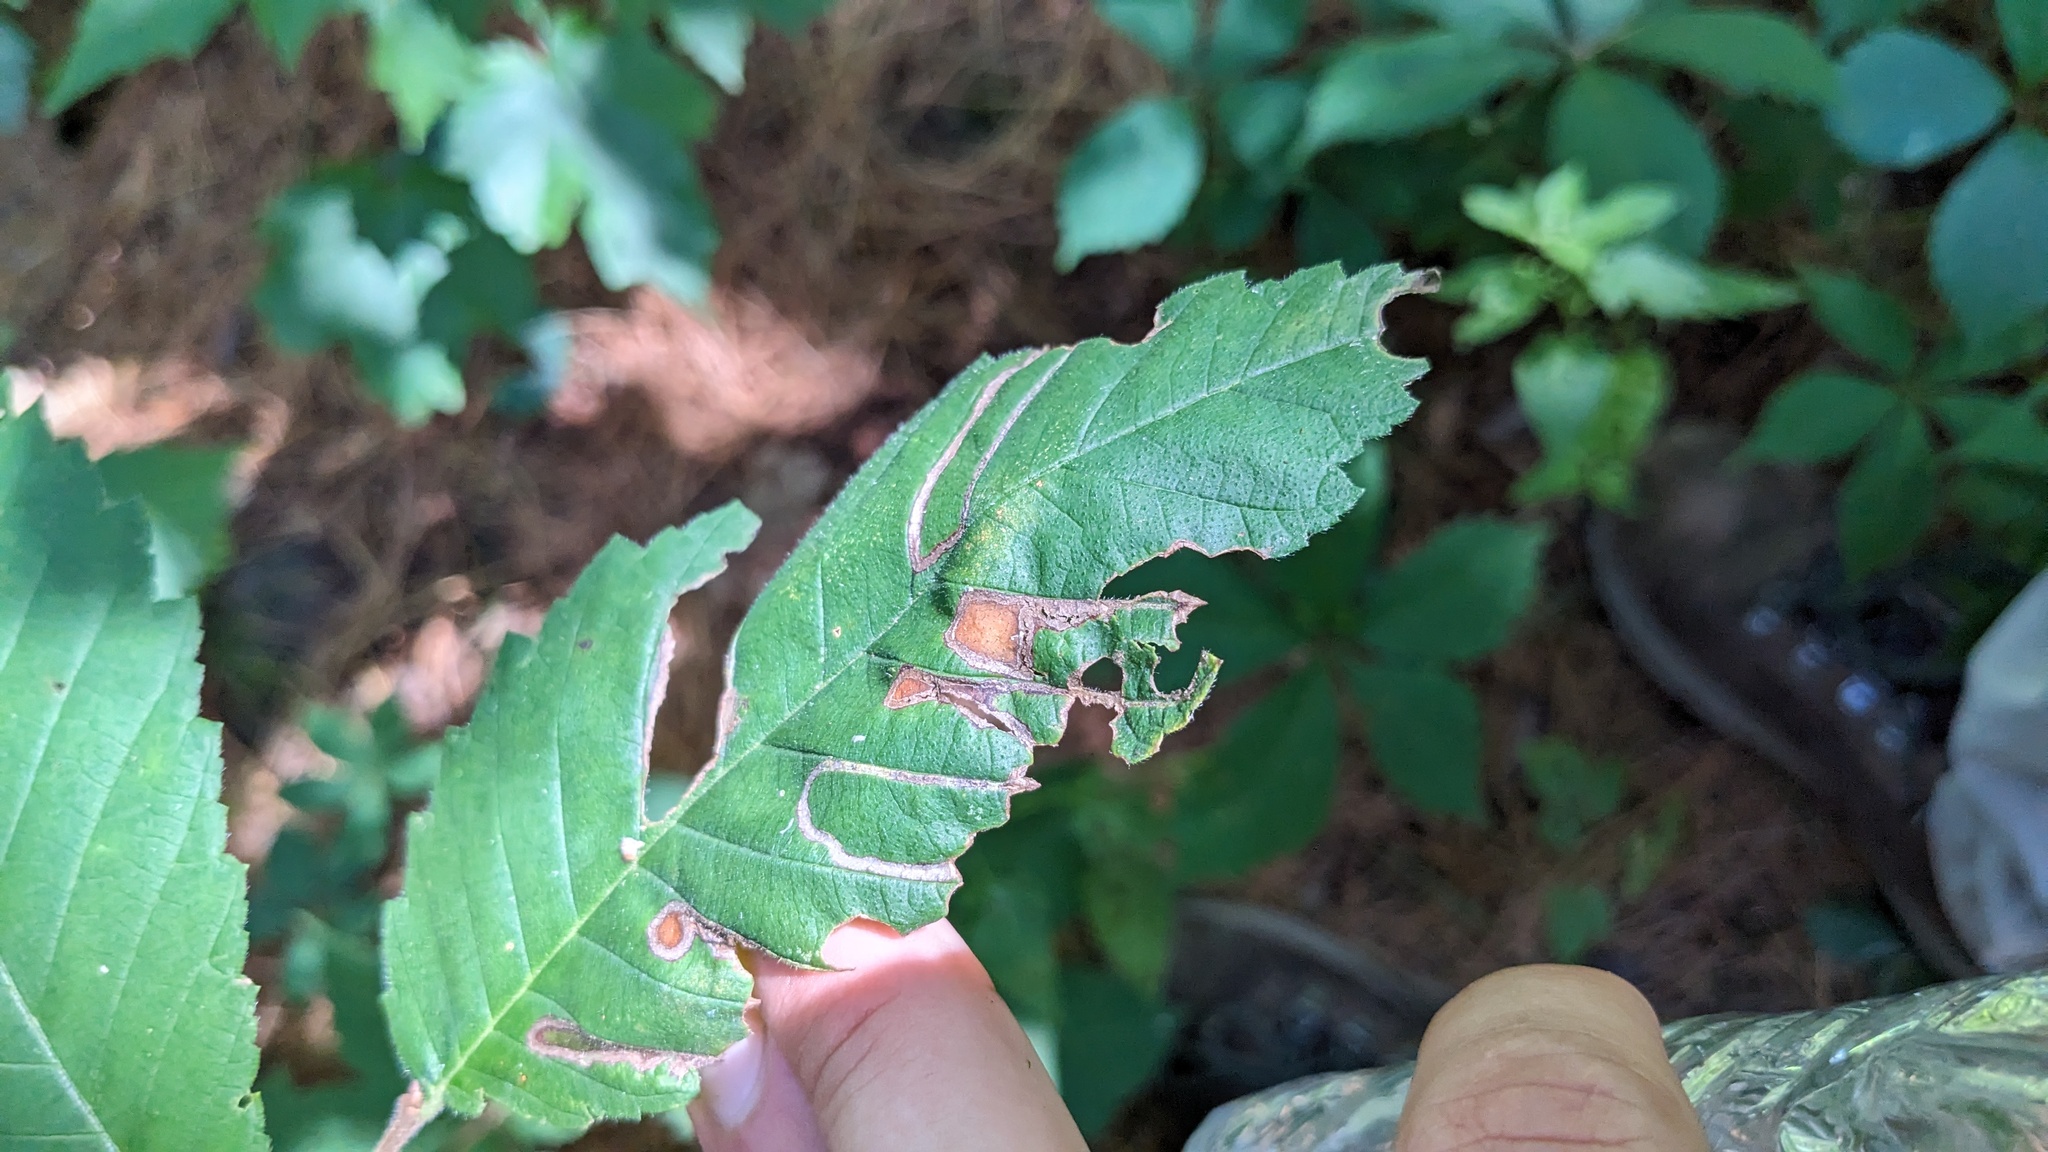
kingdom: Animalia
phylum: Arthropoda
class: Insecta
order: Diptera
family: Agromyzidae
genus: Agromyza
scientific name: Agromyza aristata
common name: Elm agromyzid leafminer
